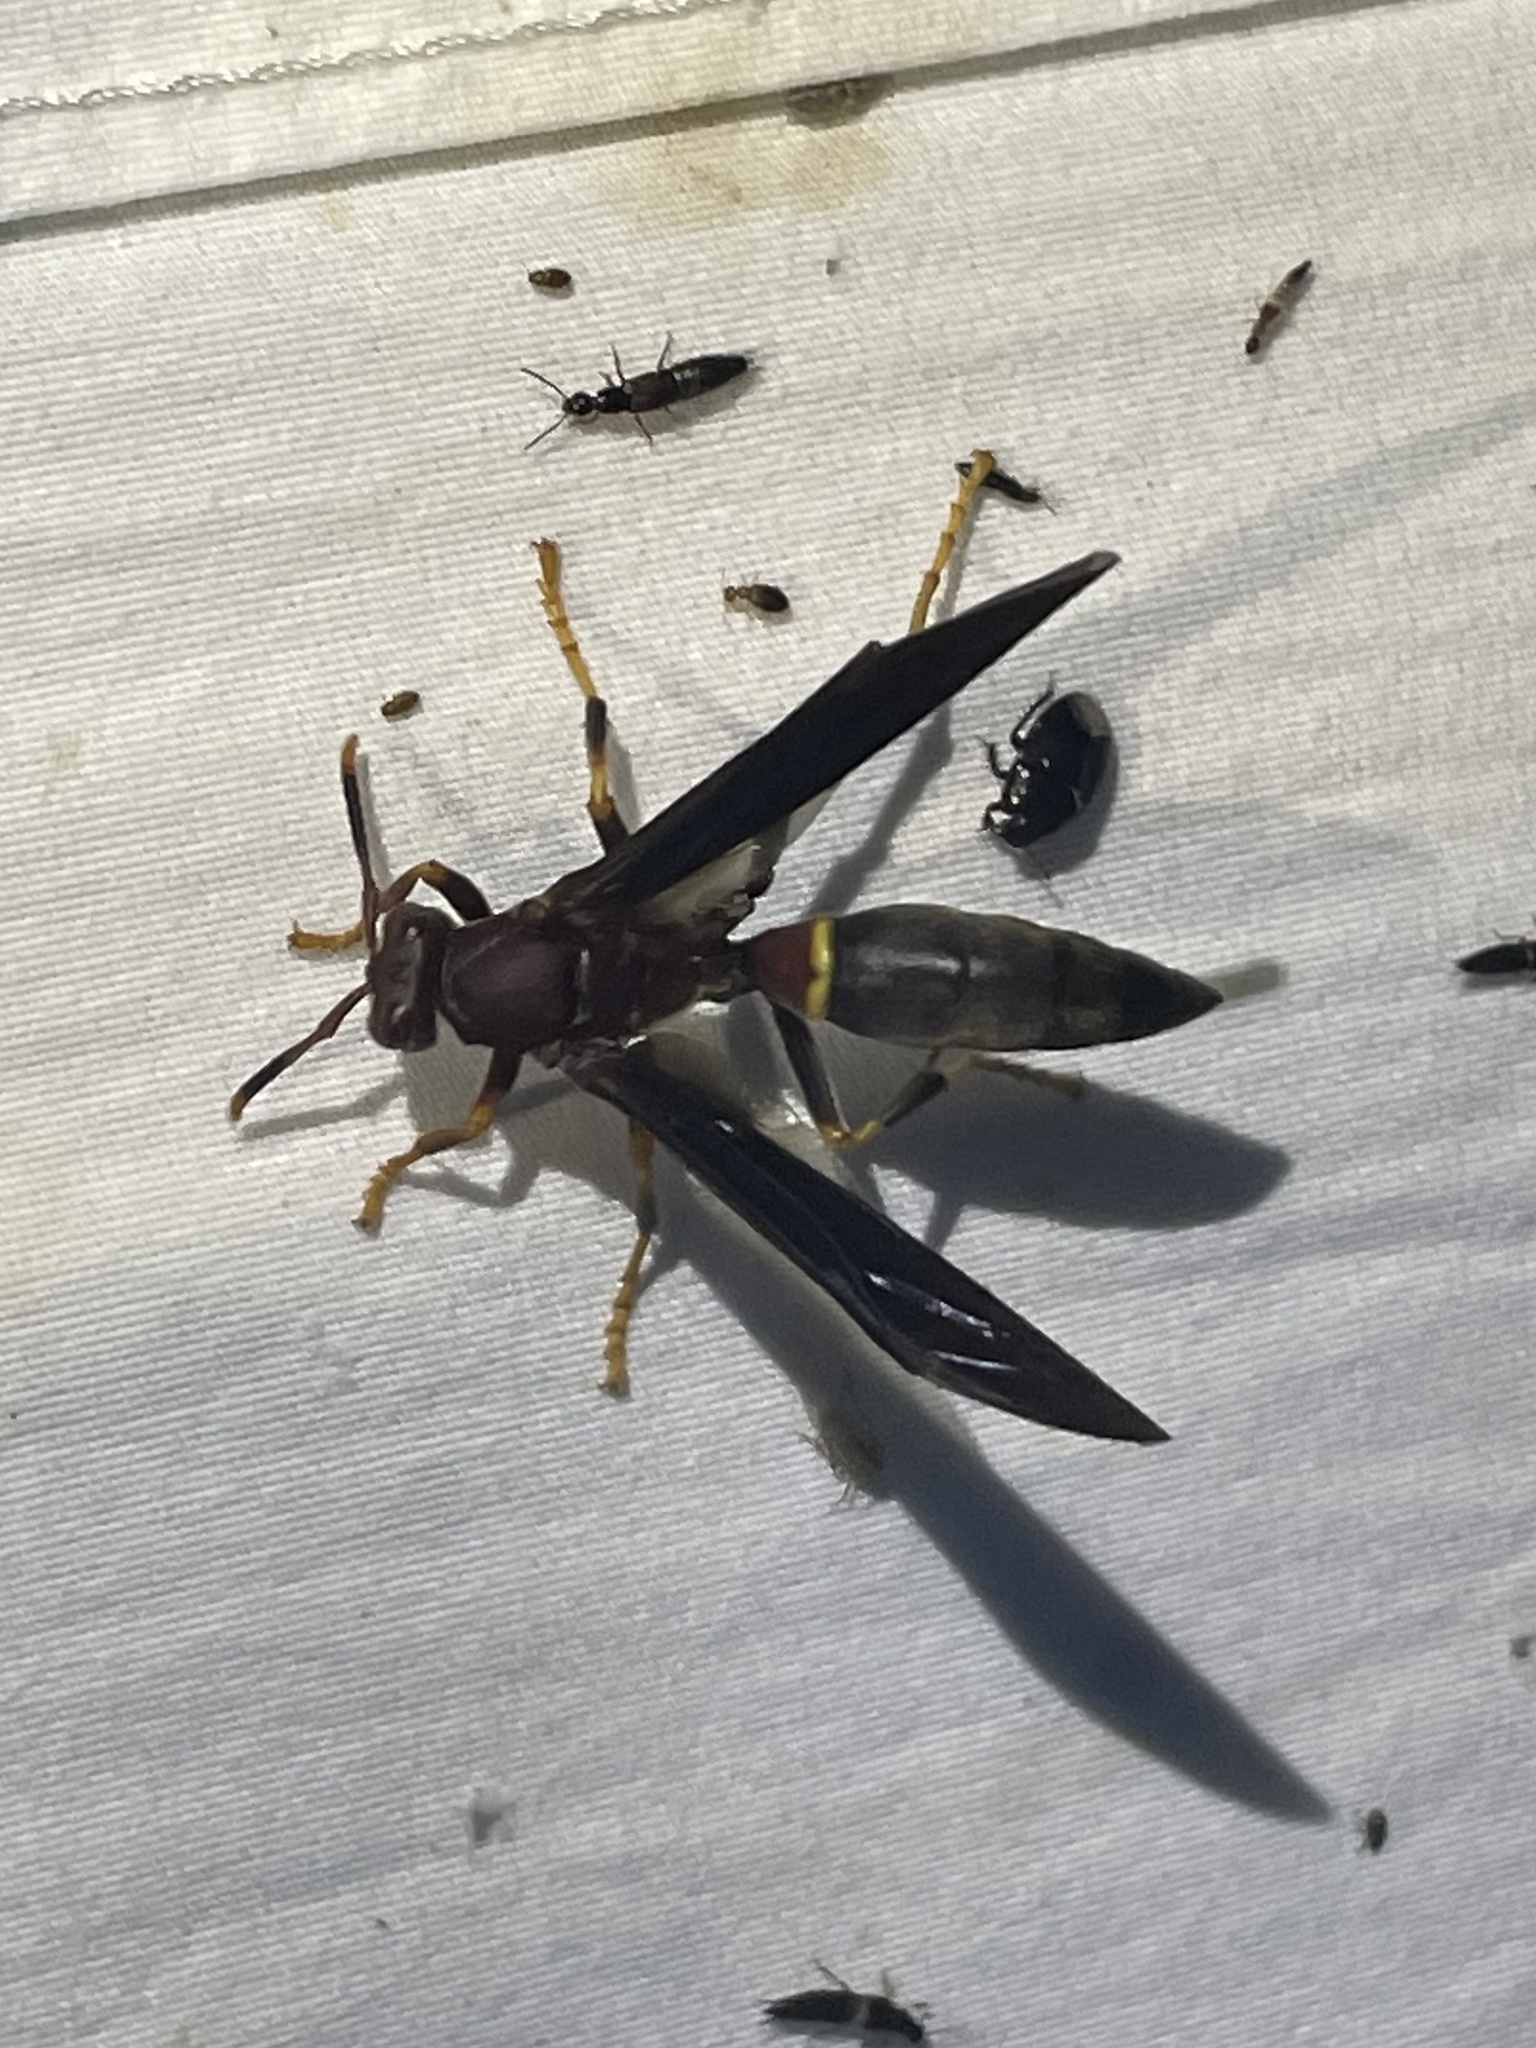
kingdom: Animalia
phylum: Arthropoda
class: Insecta
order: Hymenoptera
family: Eumenidae
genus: Polistes
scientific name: Polistes annularis
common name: Ringed paper wasp
